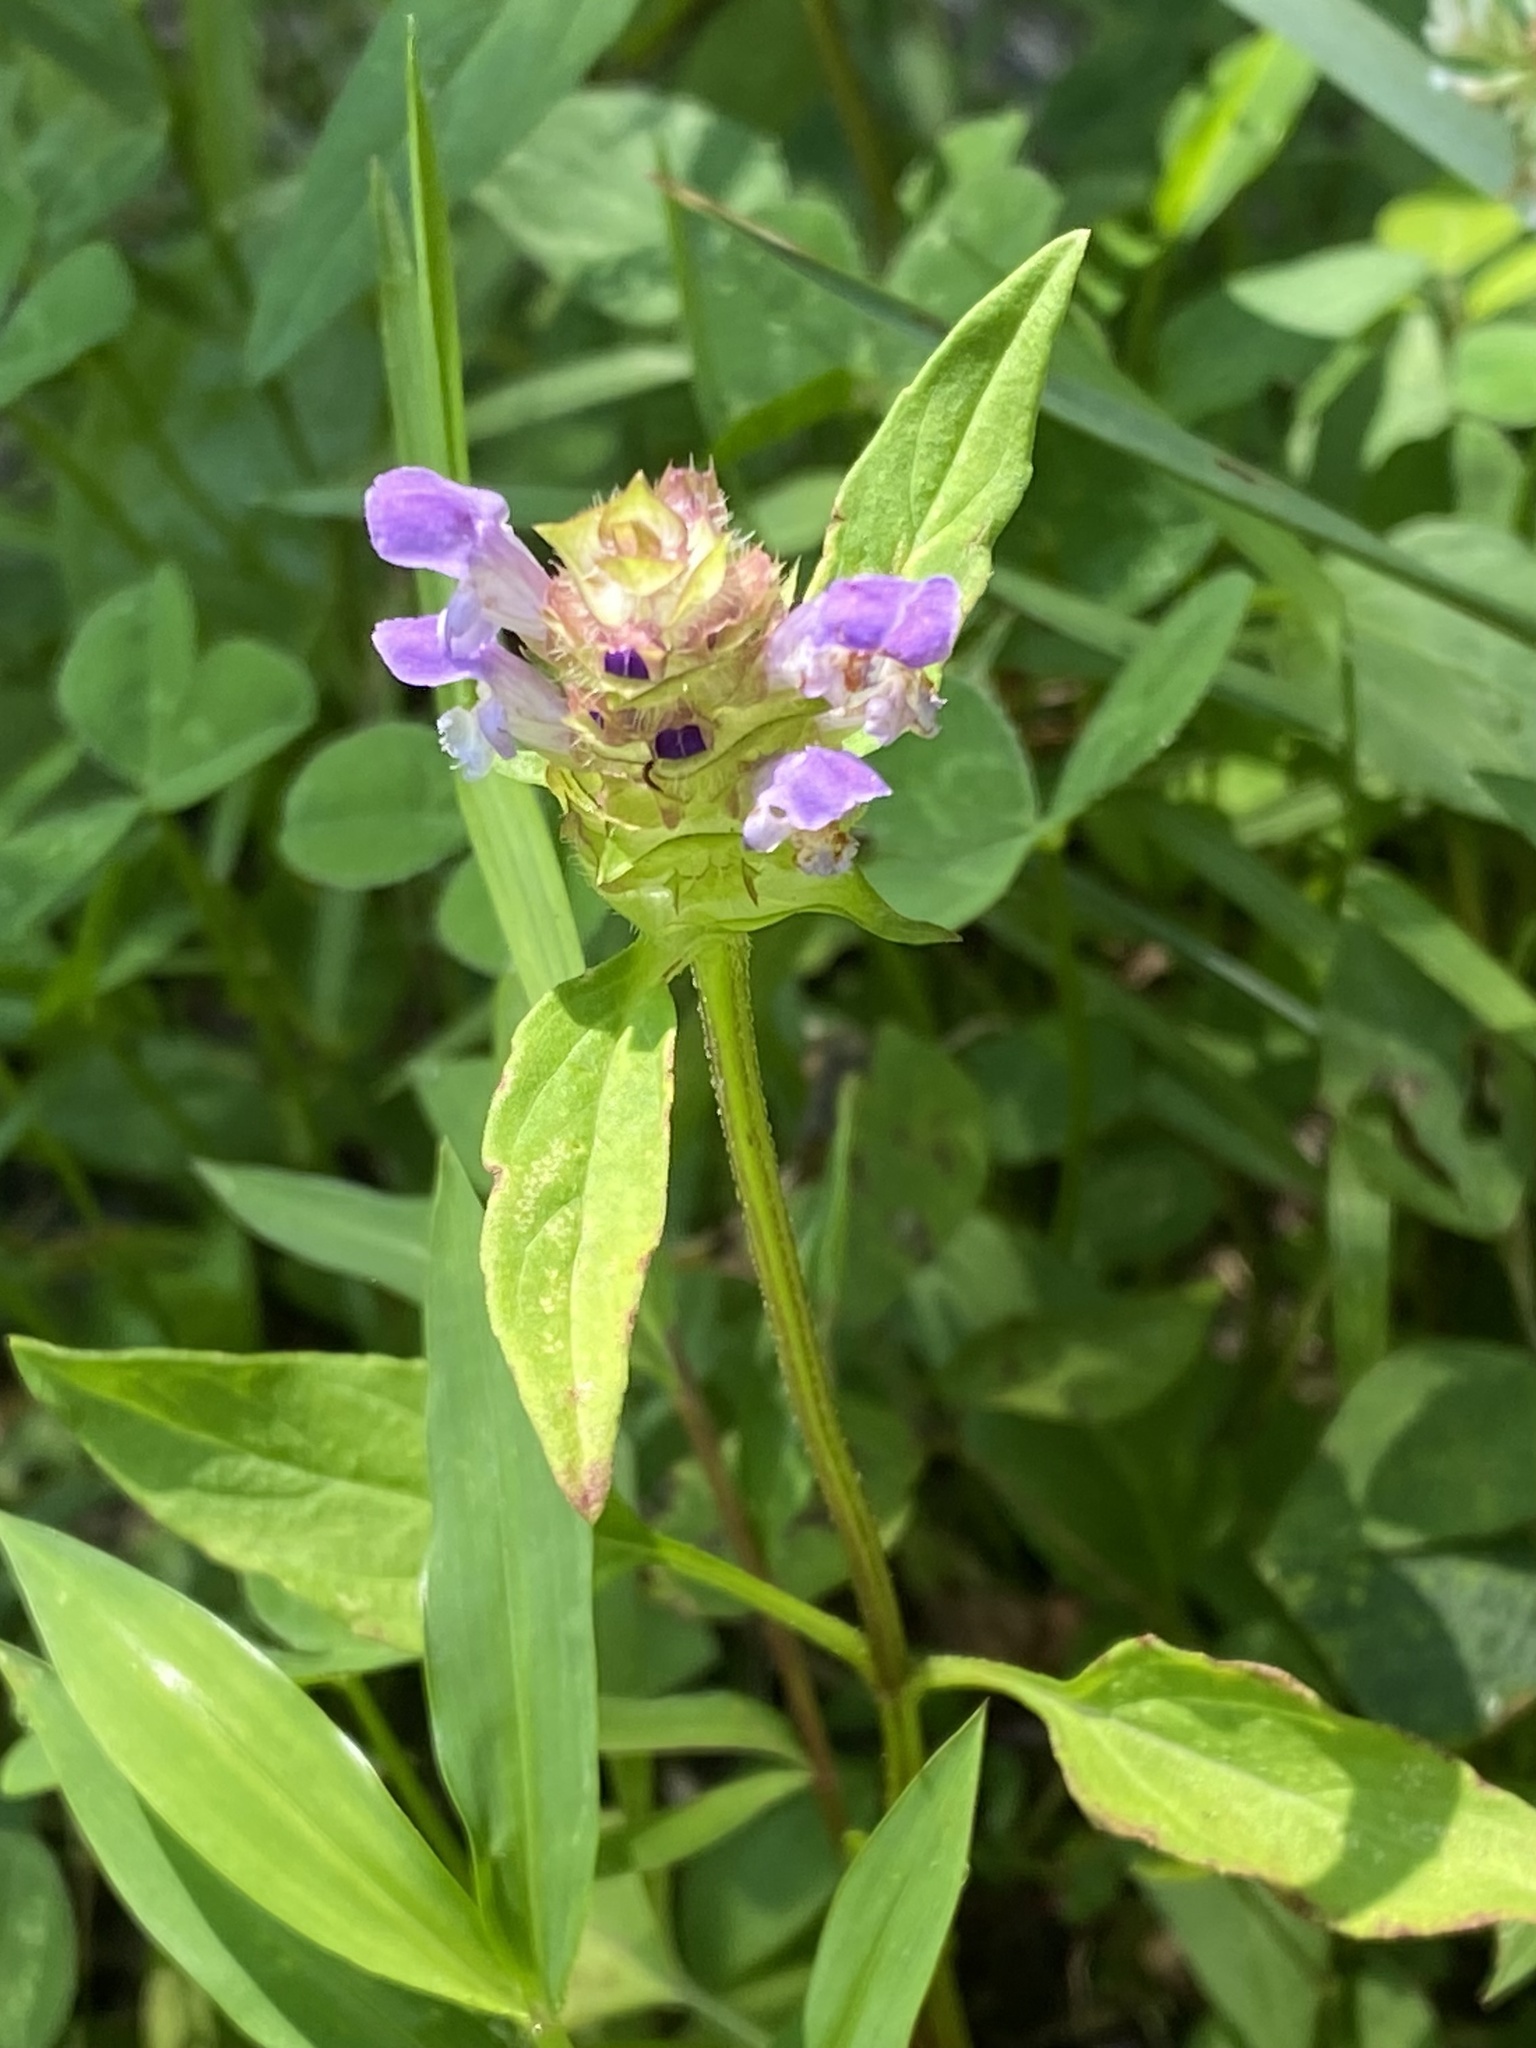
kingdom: Plantae
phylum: Tracheophyta
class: Magnoliopsida
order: Lamiales
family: Lamiaceae
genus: Prunella
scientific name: Prunella vulgaris
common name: Heal-all
